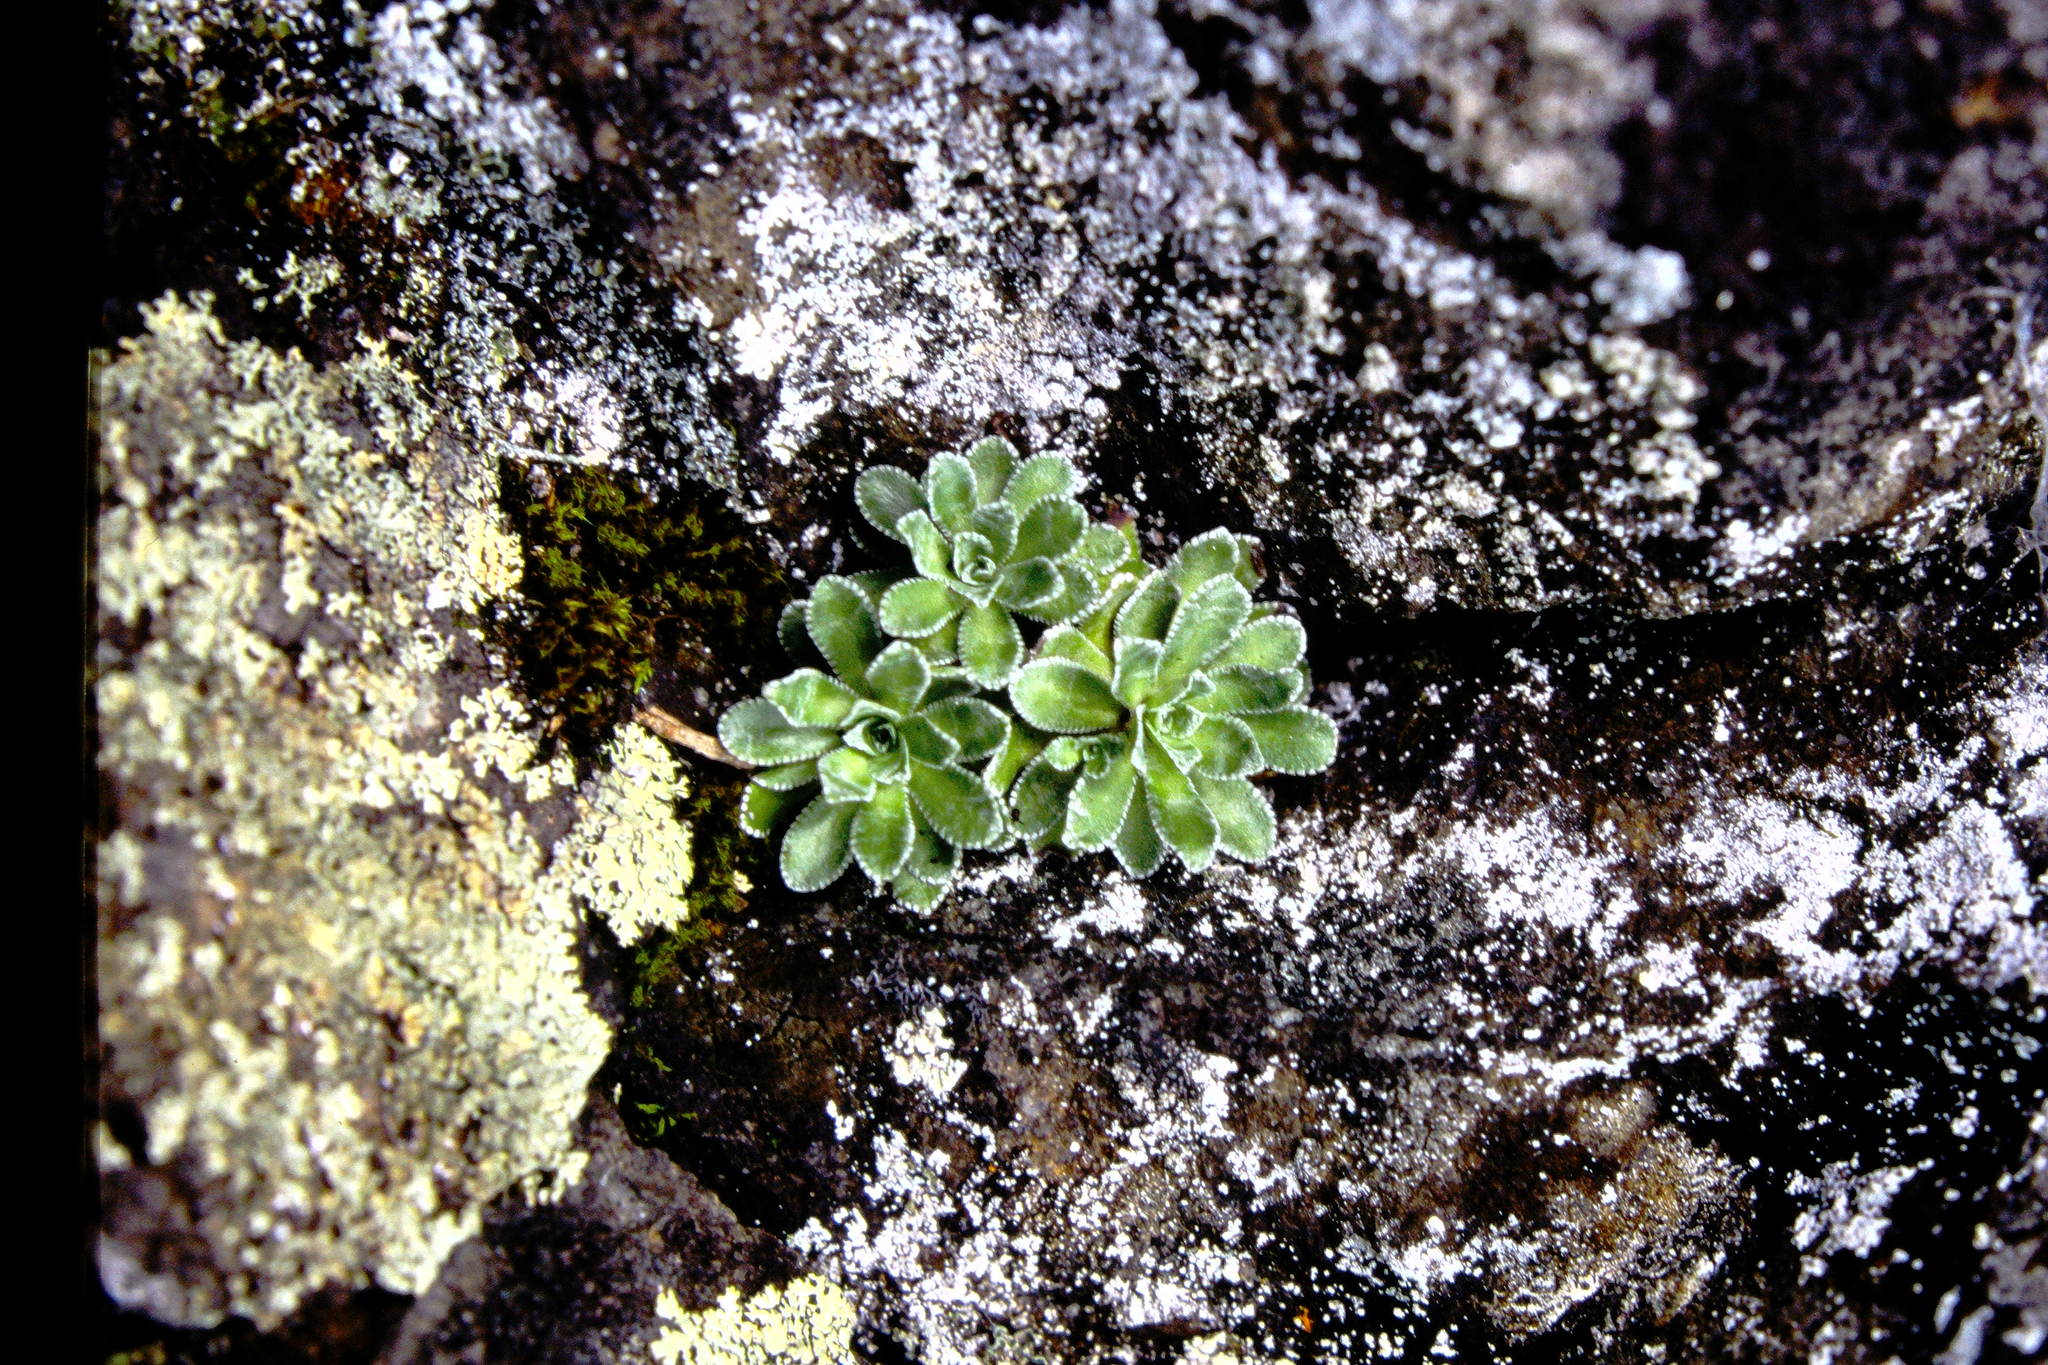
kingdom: Plantae
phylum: Tracheophyta
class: Magnoliopsida
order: Saxifragales
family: Saxifragaceae
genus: Saxifraga
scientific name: Saxifraga paniculata
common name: Livelong saxifrage
